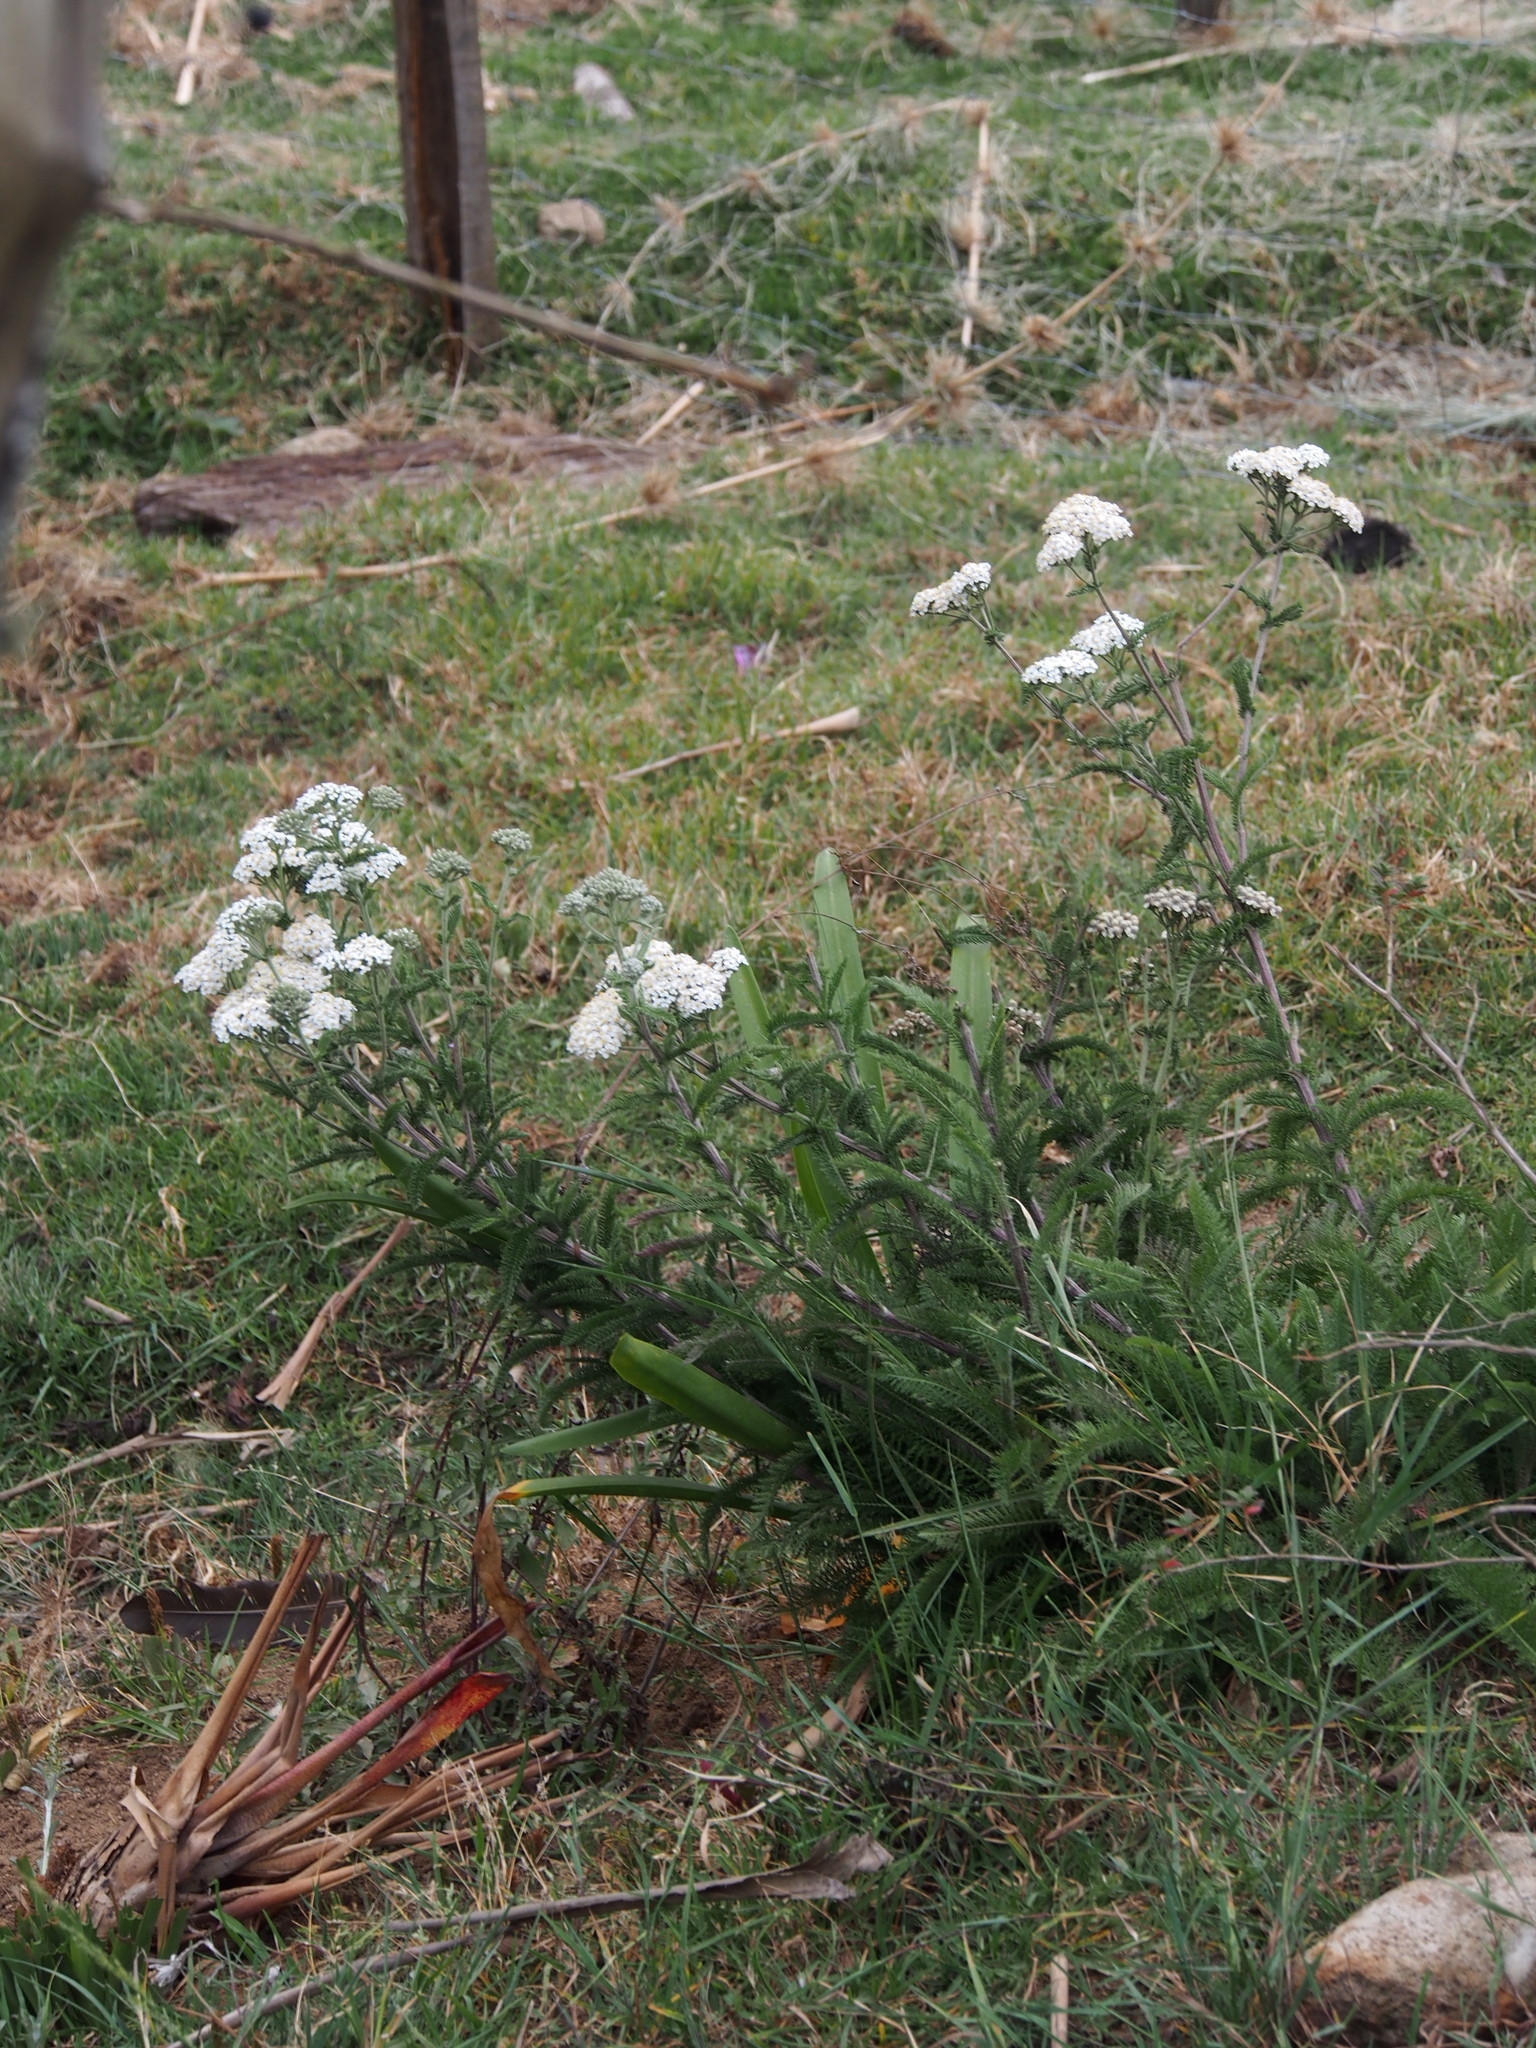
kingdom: Plantae
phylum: Tracheophyta
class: Magnoliopsida
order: Asterales
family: Asteraceae
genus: Achillea
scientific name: Achillea millefolium
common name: Yarrow
